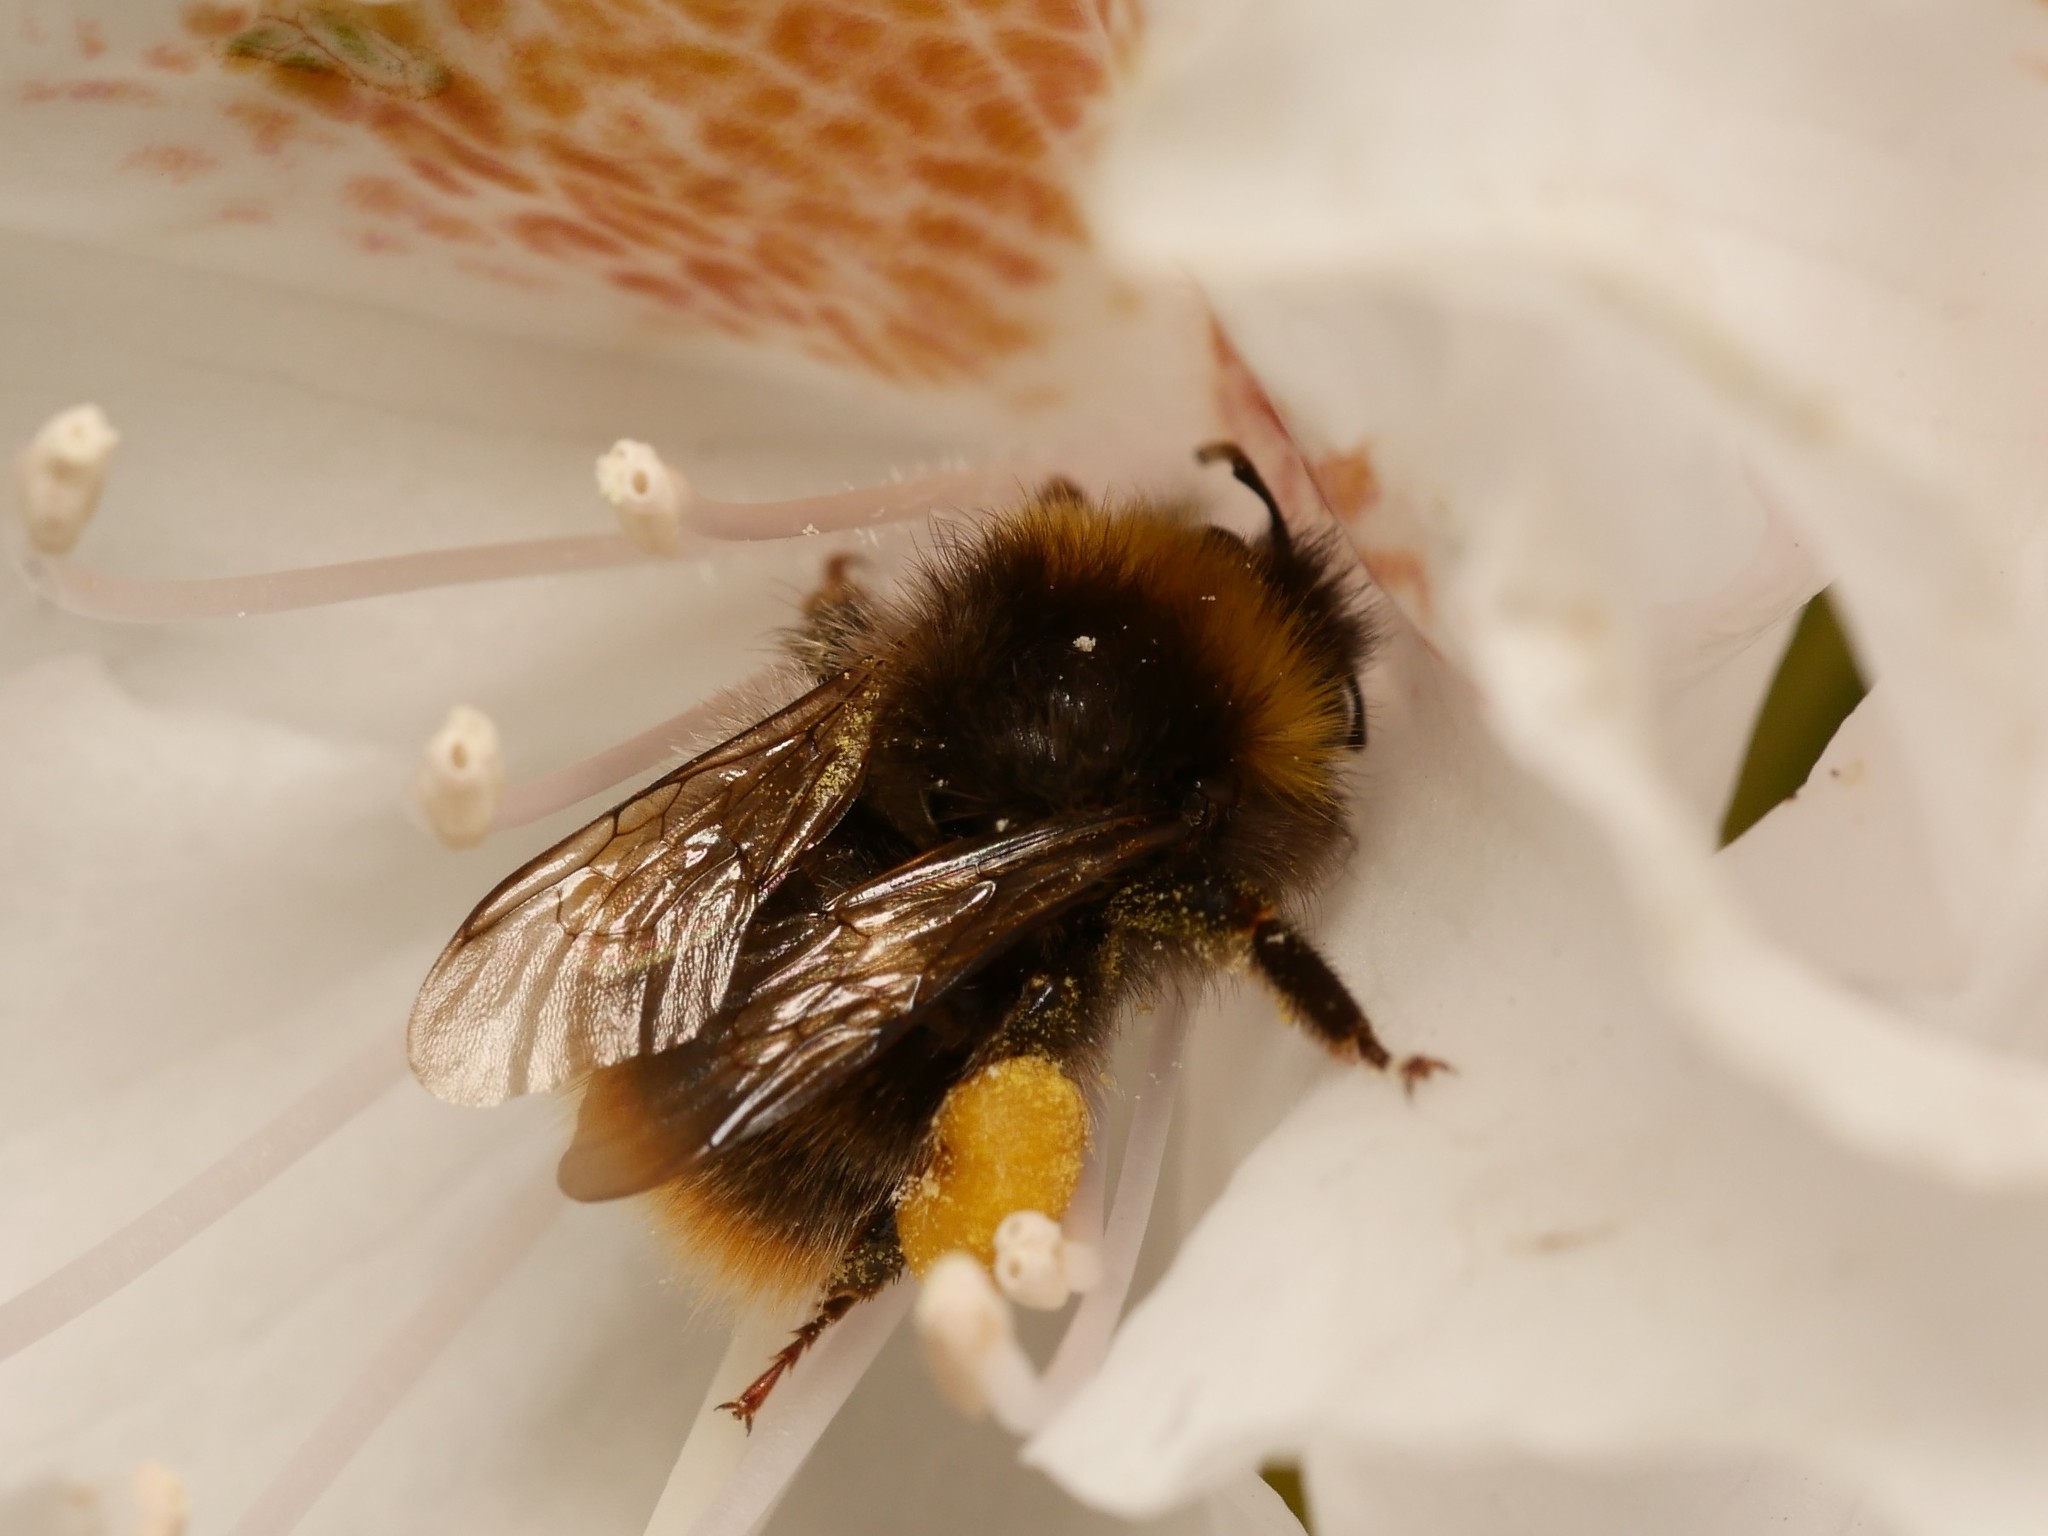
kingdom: Animalia
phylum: Arthropoda
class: Insecta
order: Hymenoptera
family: Apidae
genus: Bombus
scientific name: Bombus pratorum
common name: Early humble-bee
